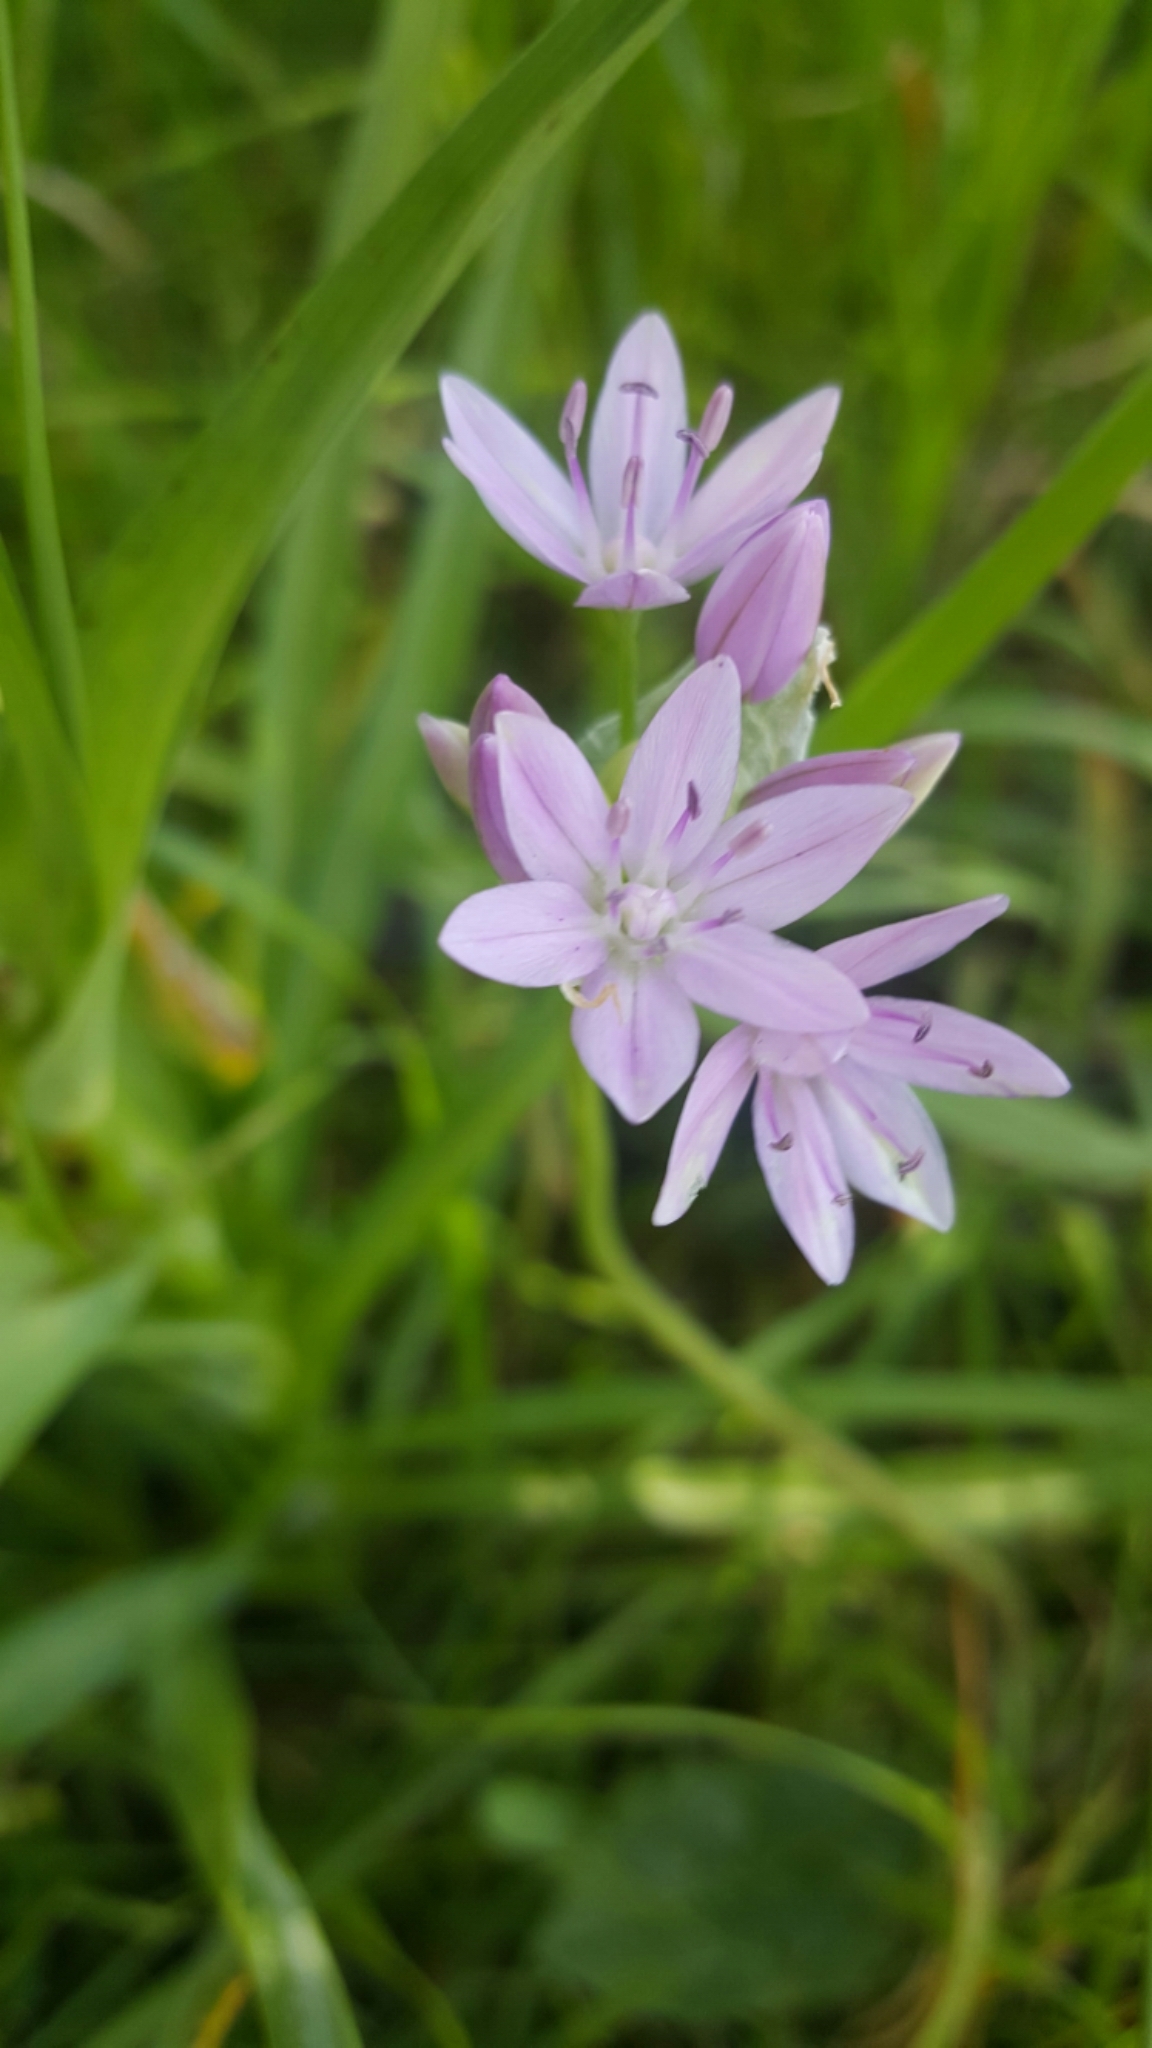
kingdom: Plantae
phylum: Tracheophyta
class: Liliopsida
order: Asparagales
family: Amaryllidaceae
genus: Allium
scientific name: Allium unifolium
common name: American garlic
